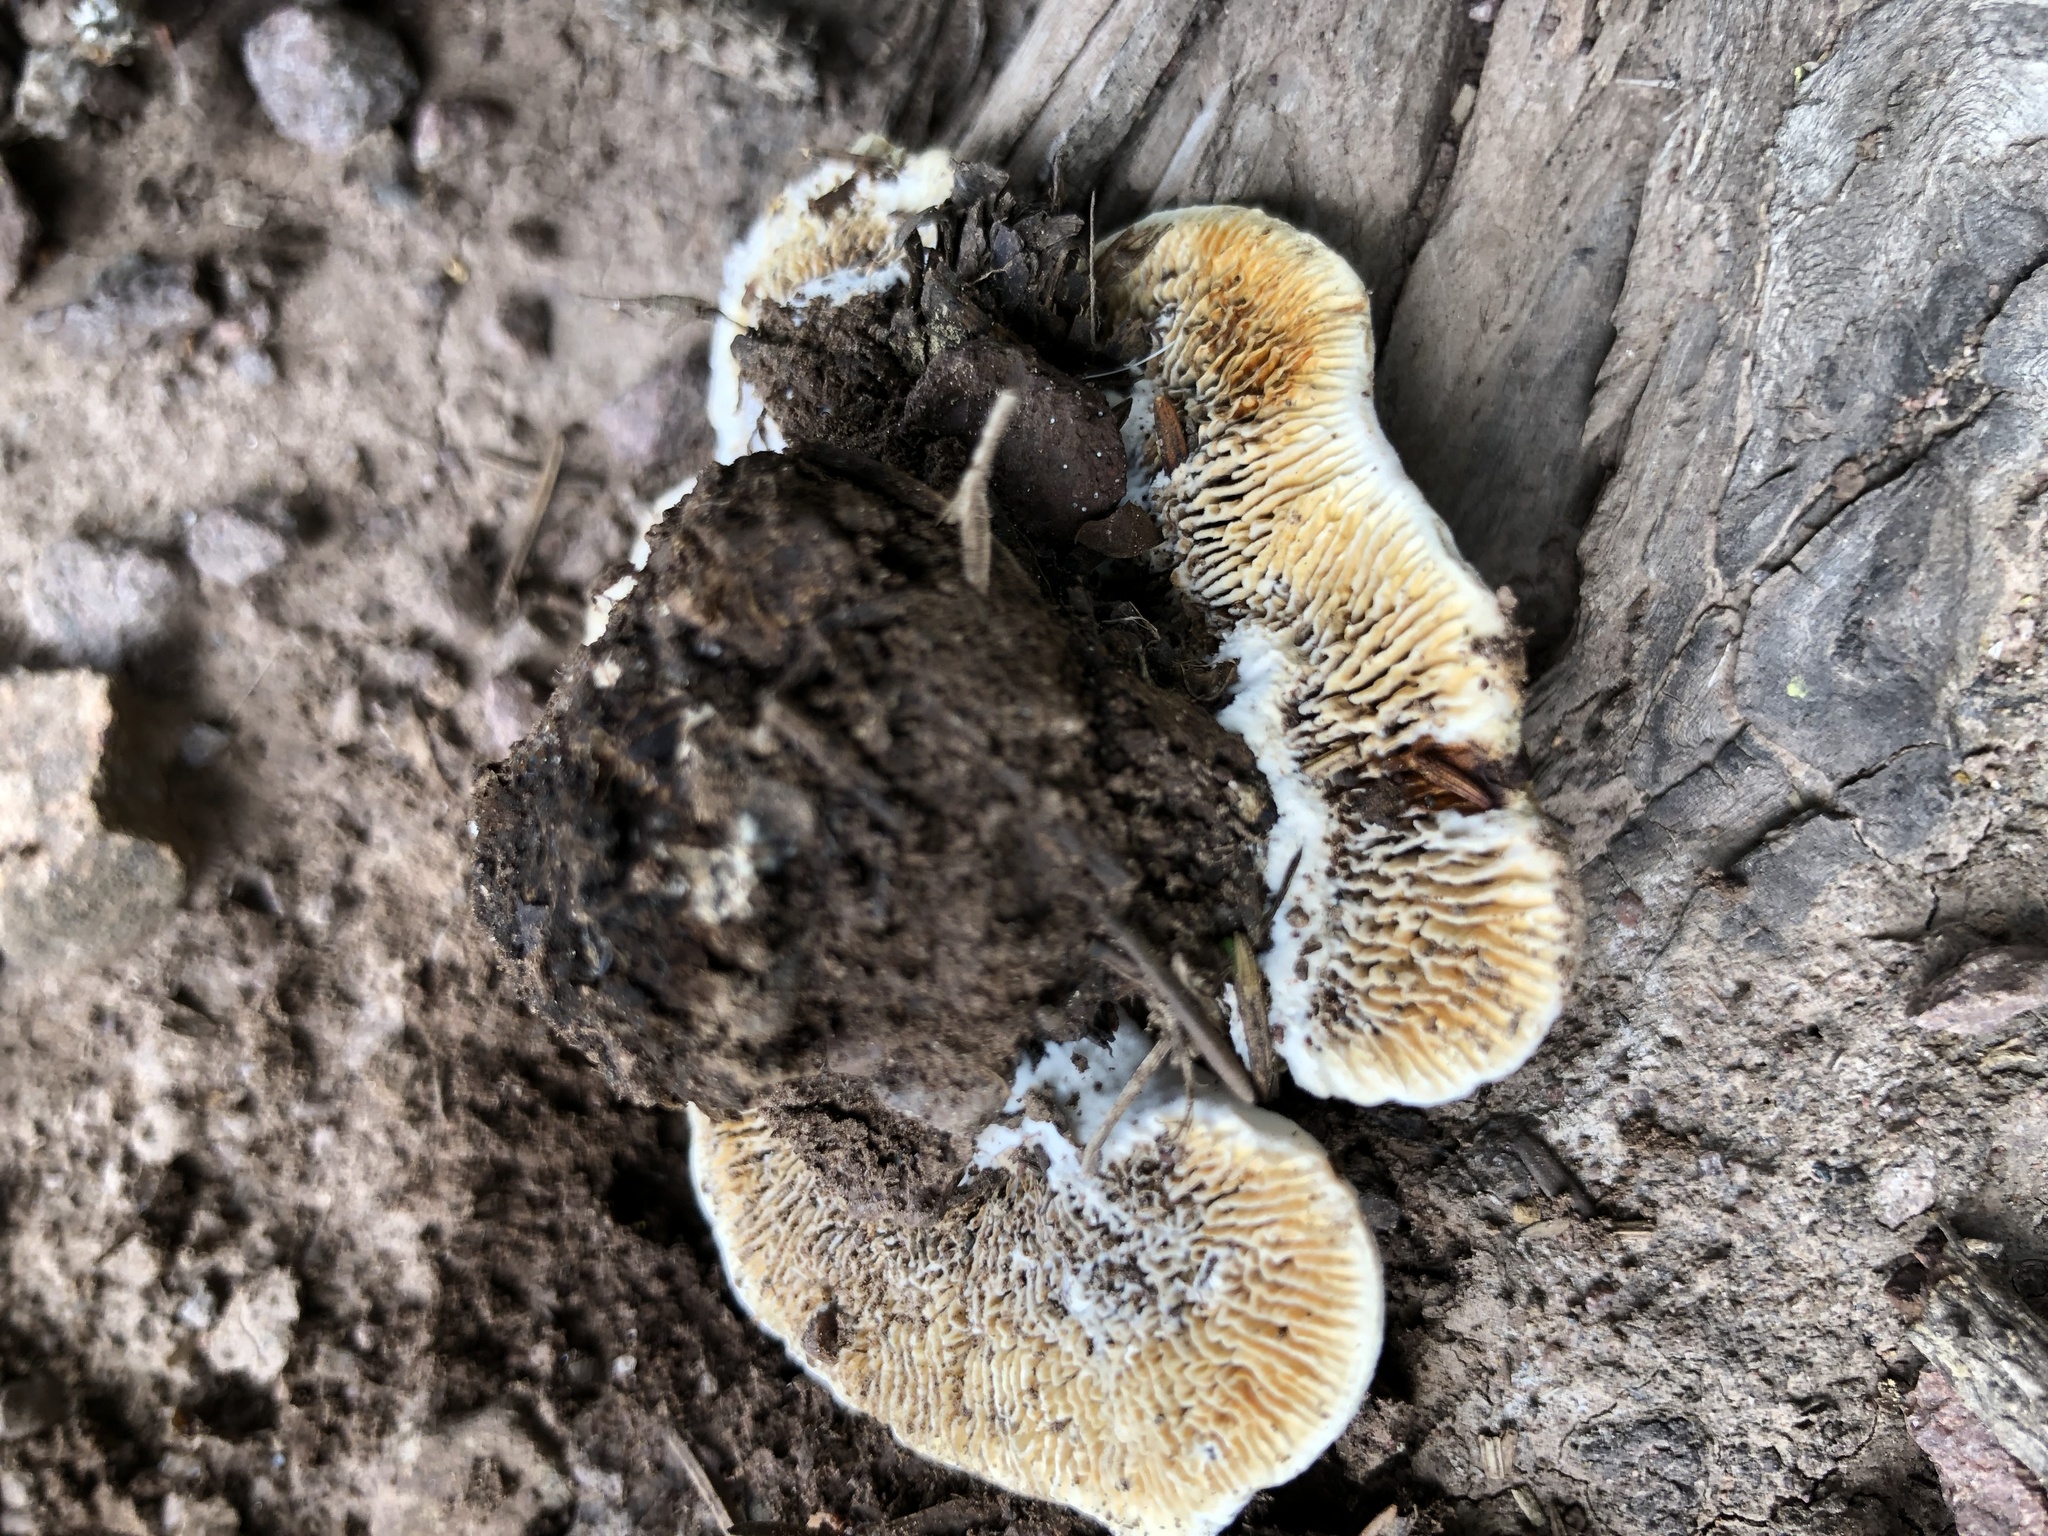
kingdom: Fungi
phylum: Basidiomycota
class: Agaricomycetes
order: Gloeophyllales
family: Gloeophyllaceae
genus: Gloeophyllum
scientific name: Gloeophyllum sepiarium
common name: Conifer mazegill
